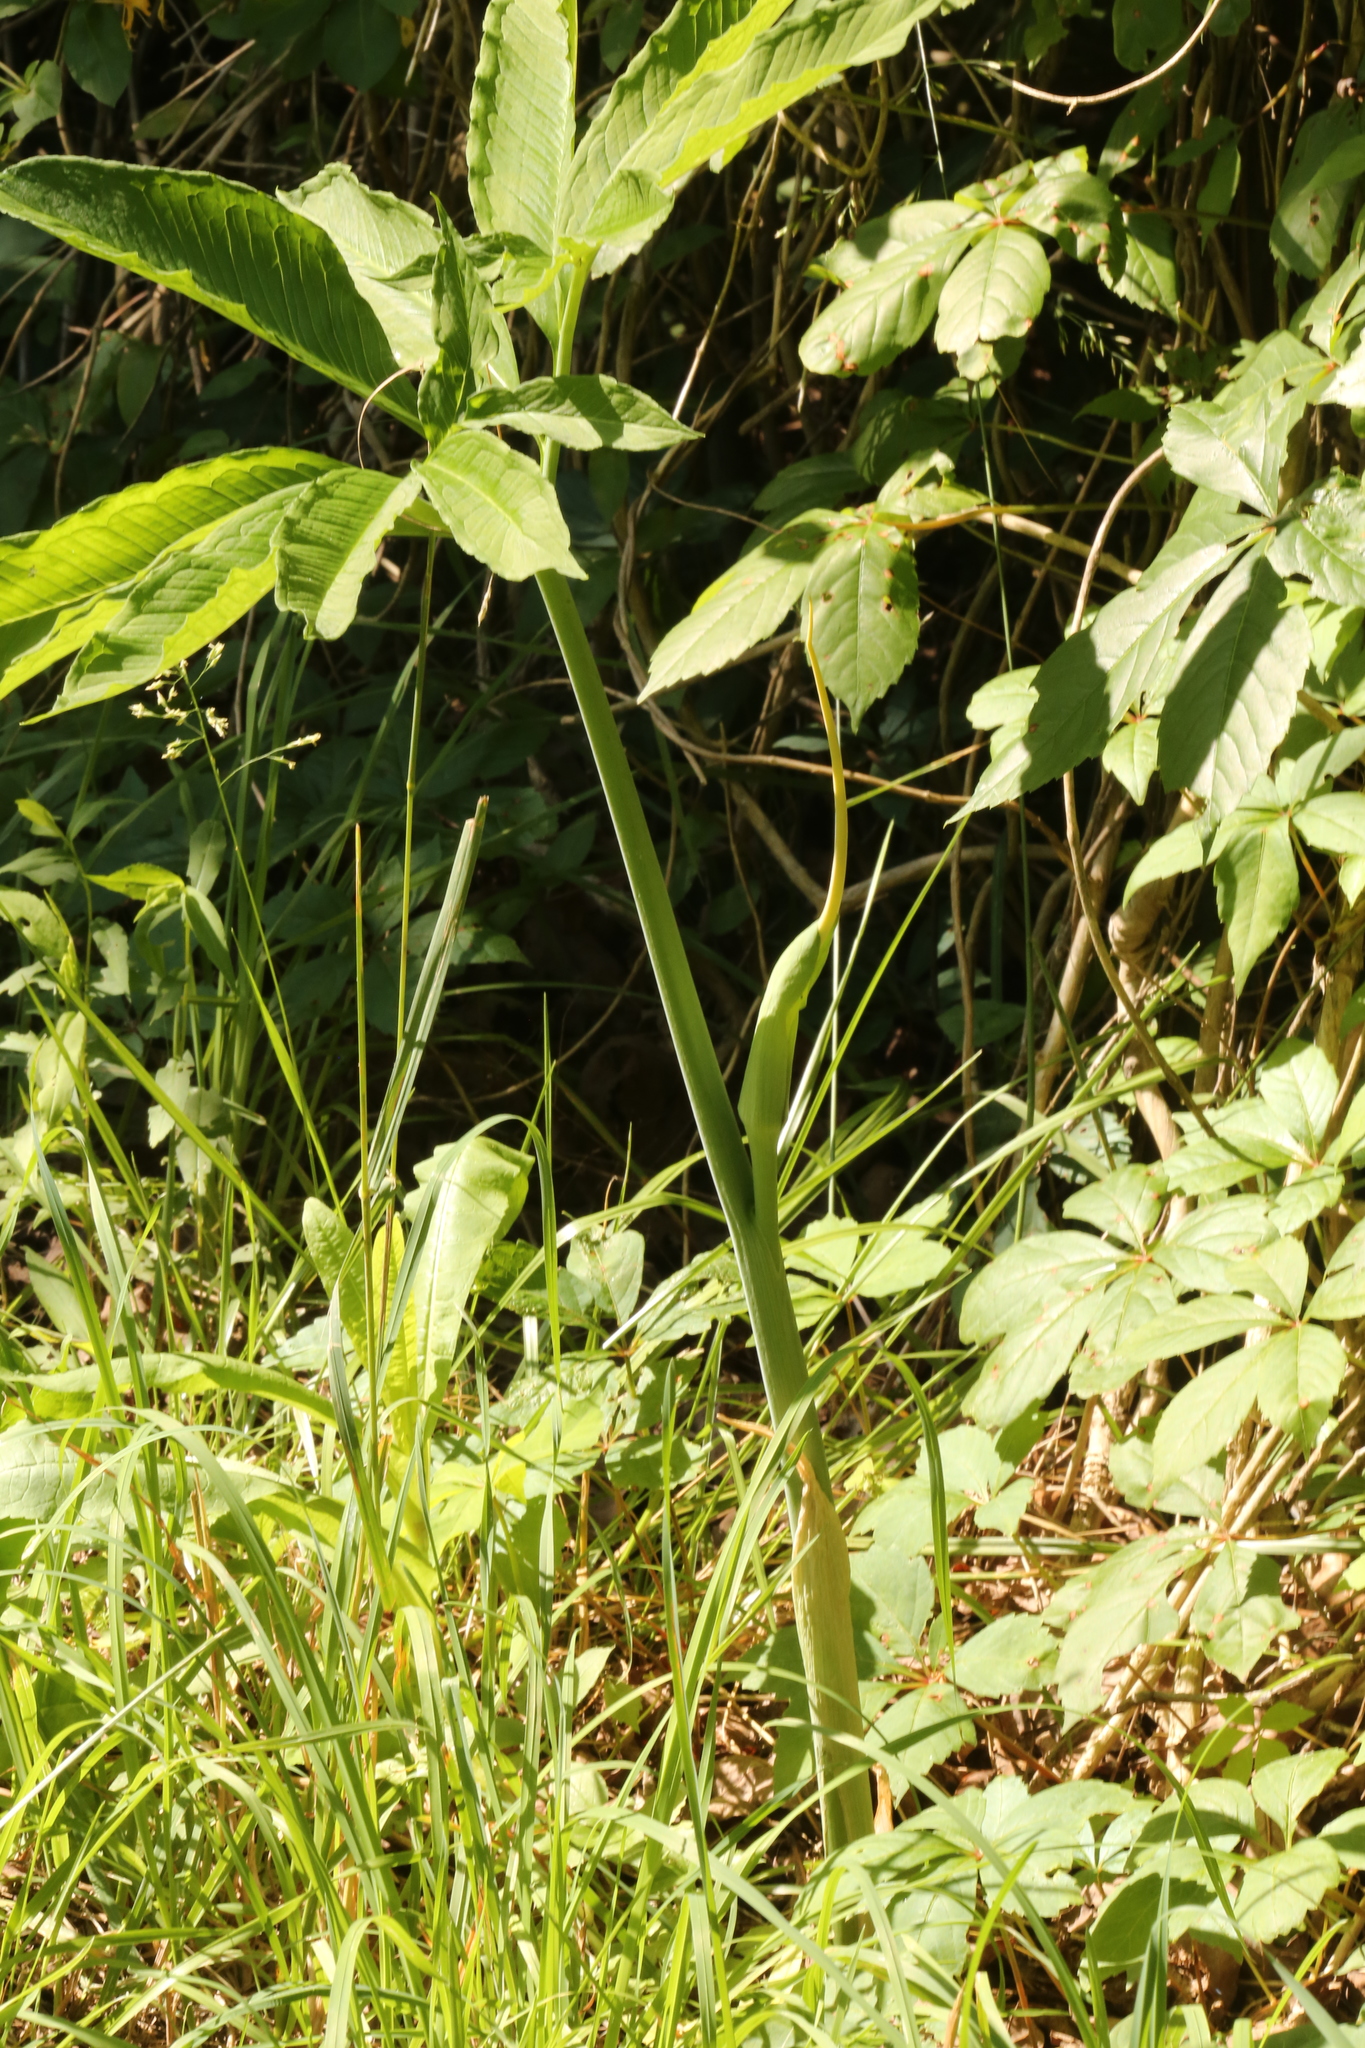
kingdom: Plantae
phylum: Tracheophyta
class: Liliopsida
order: Alismatales
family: Araceae
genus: Arisaema
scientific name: Arisaema dracontium
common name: Dragon-arum
